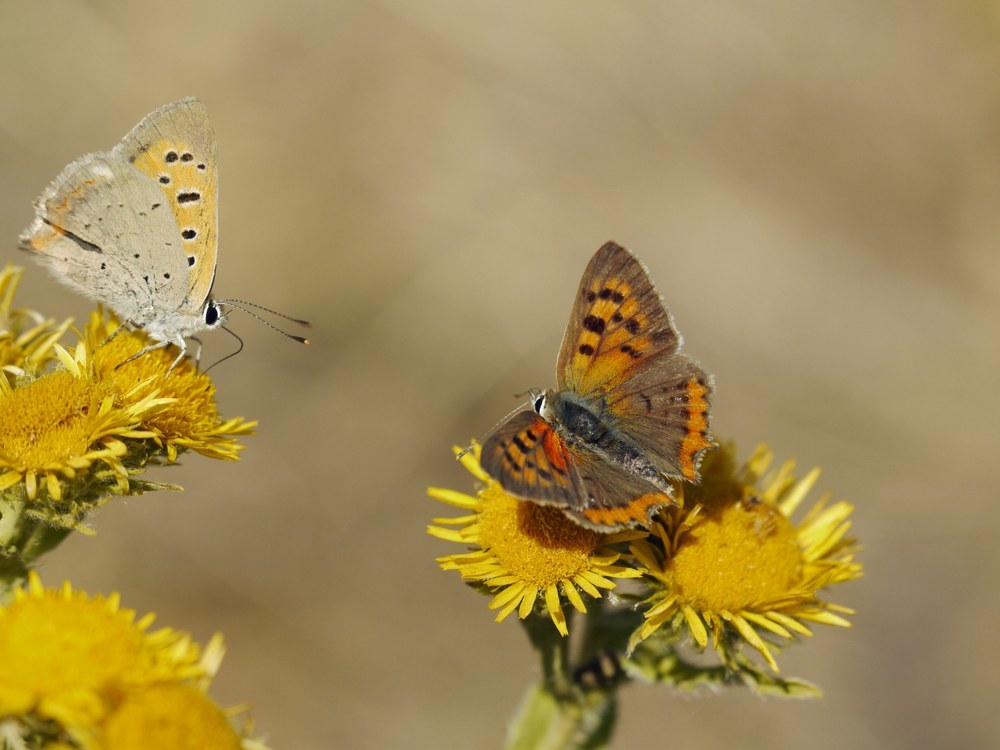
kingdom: Animalia
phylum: Arthropoda
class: Insecta
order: Lepidoptera
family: Lycaenidae
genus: Lycaena
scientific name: Lycaena phlaeas
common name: Small copper
